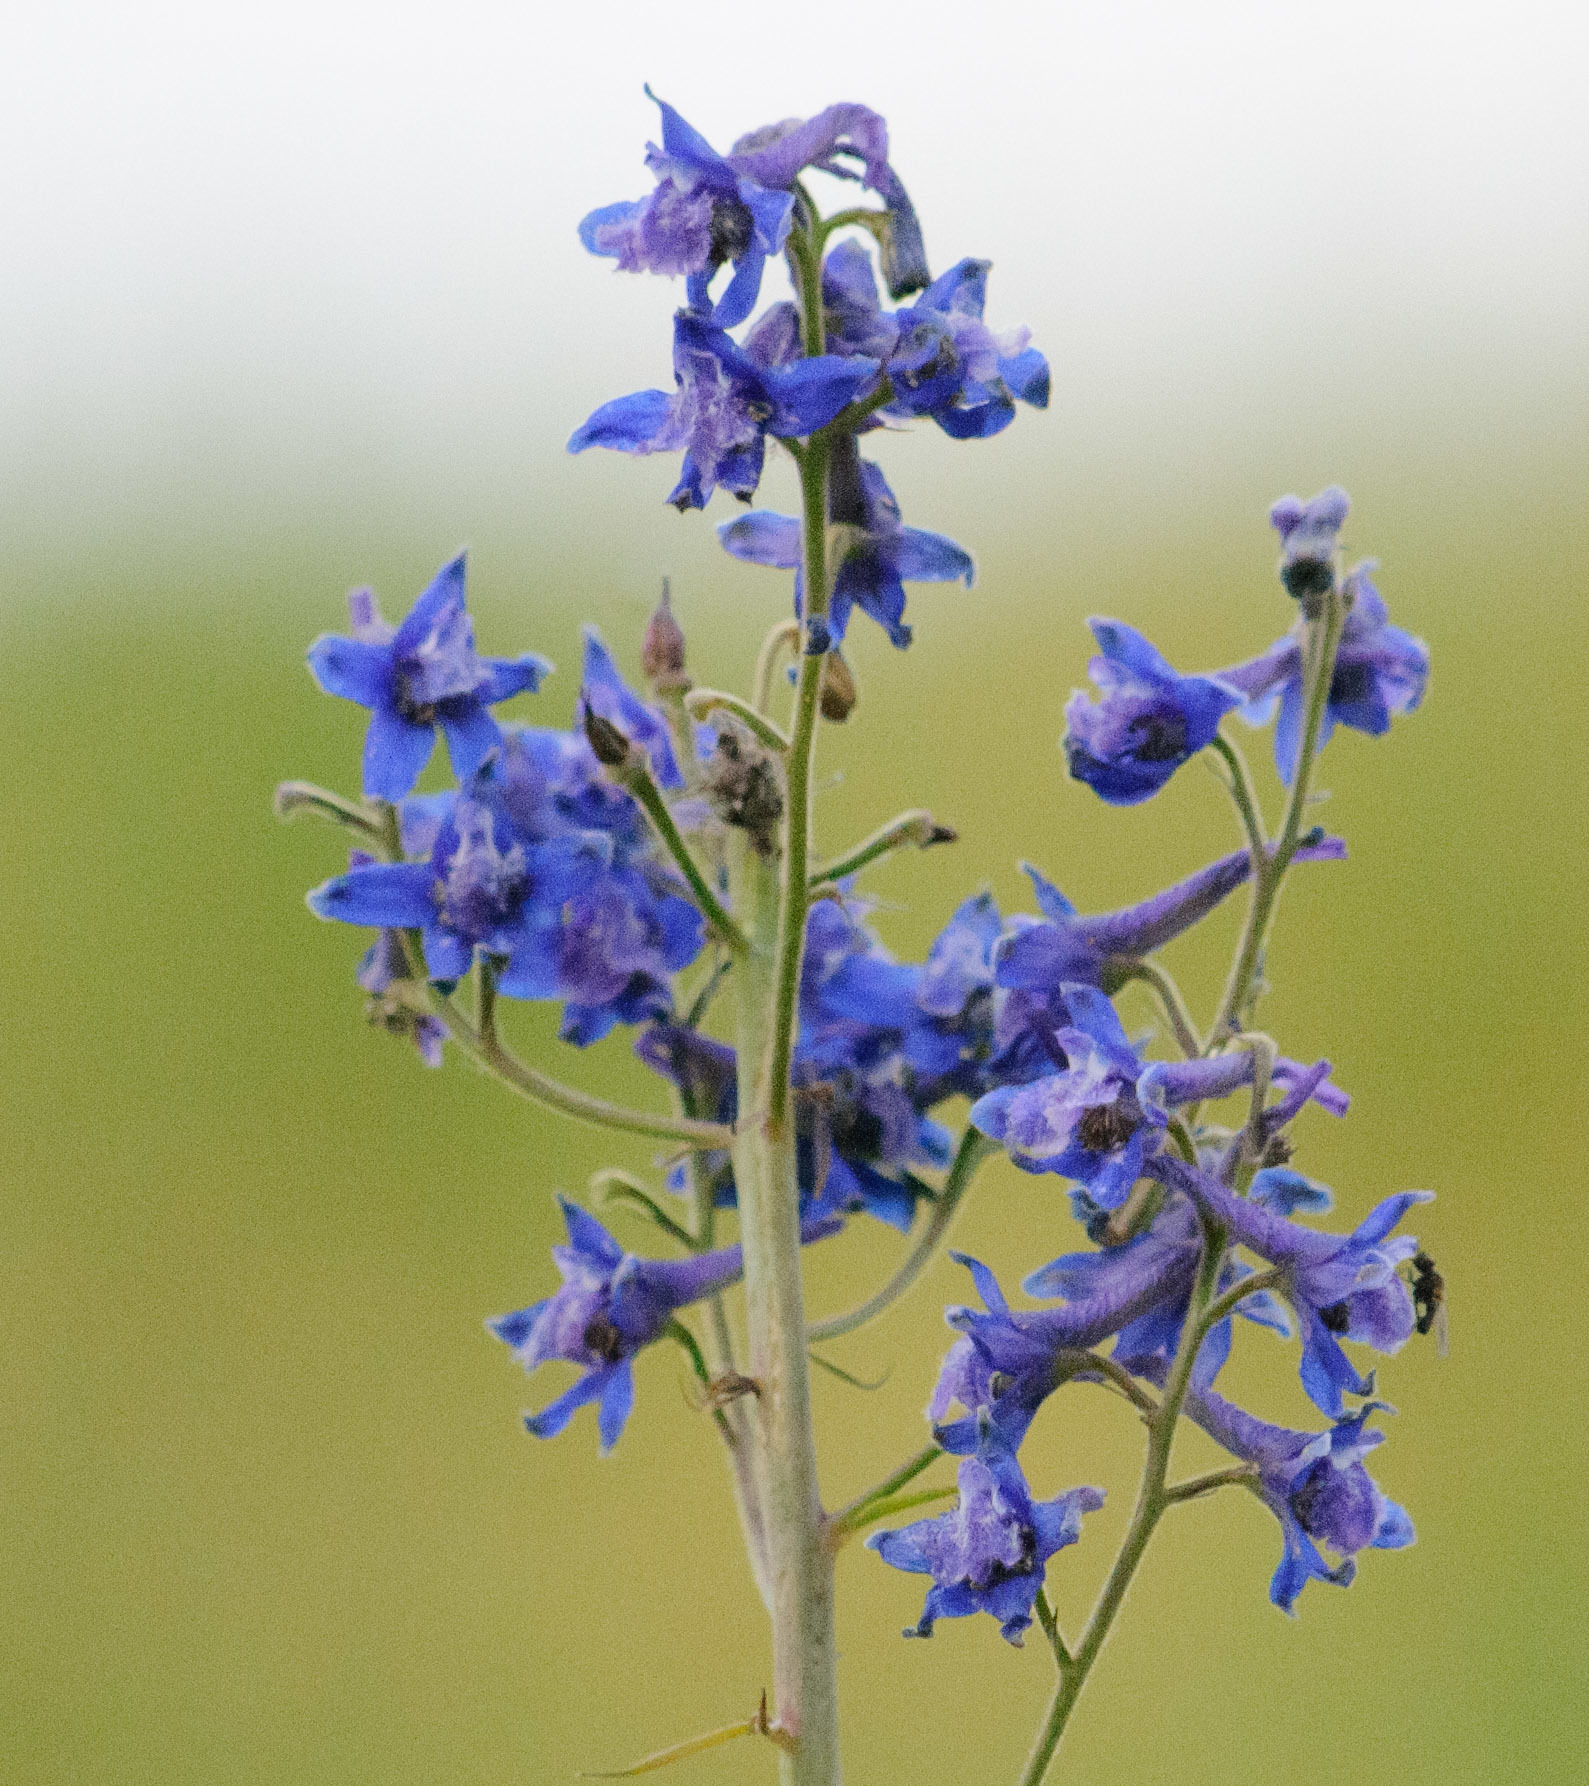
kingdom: Plantae
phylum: Tracheophyta
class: Magnoliopsida
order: Ranunculales
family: Ranunculaceae
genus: Delphinium
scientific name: Delphinium nuttallianum
